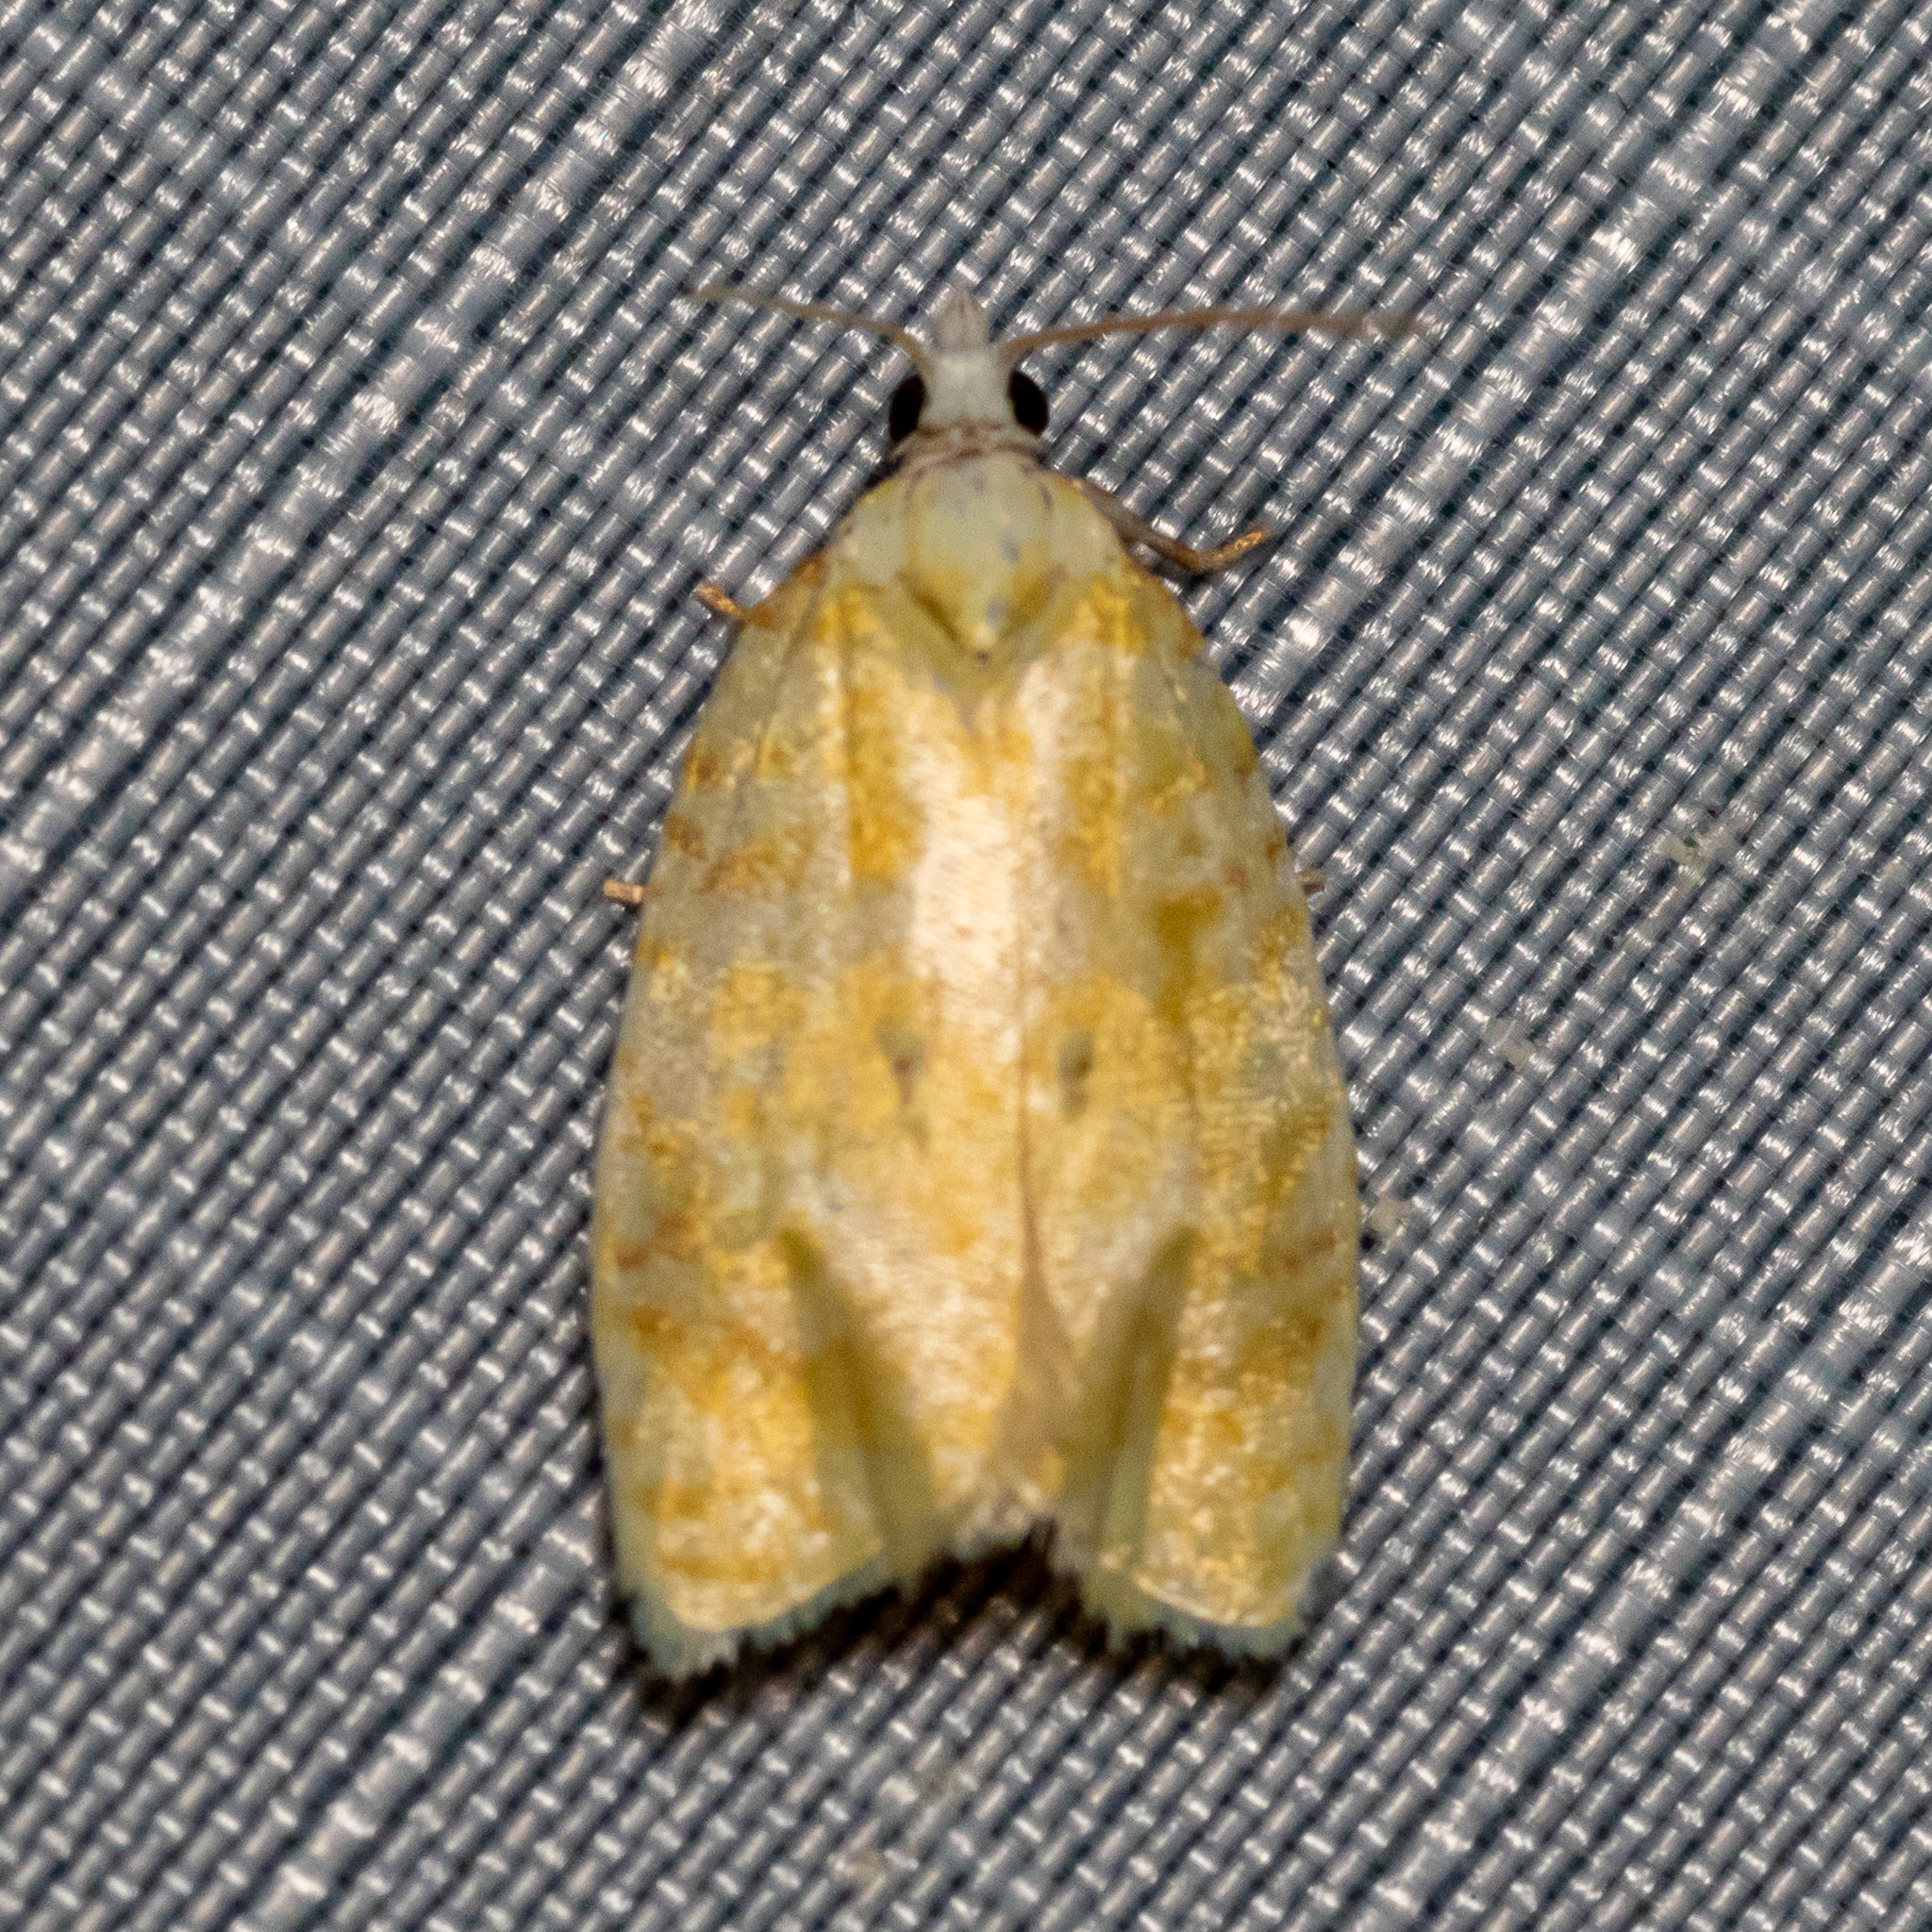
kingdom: Animalia
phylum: Arthropoda
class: Insecta
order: Lepidoptera
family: Tortricidae
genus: Acleris
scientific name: Acleris semipurpurana
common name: Oak leaftier moth
